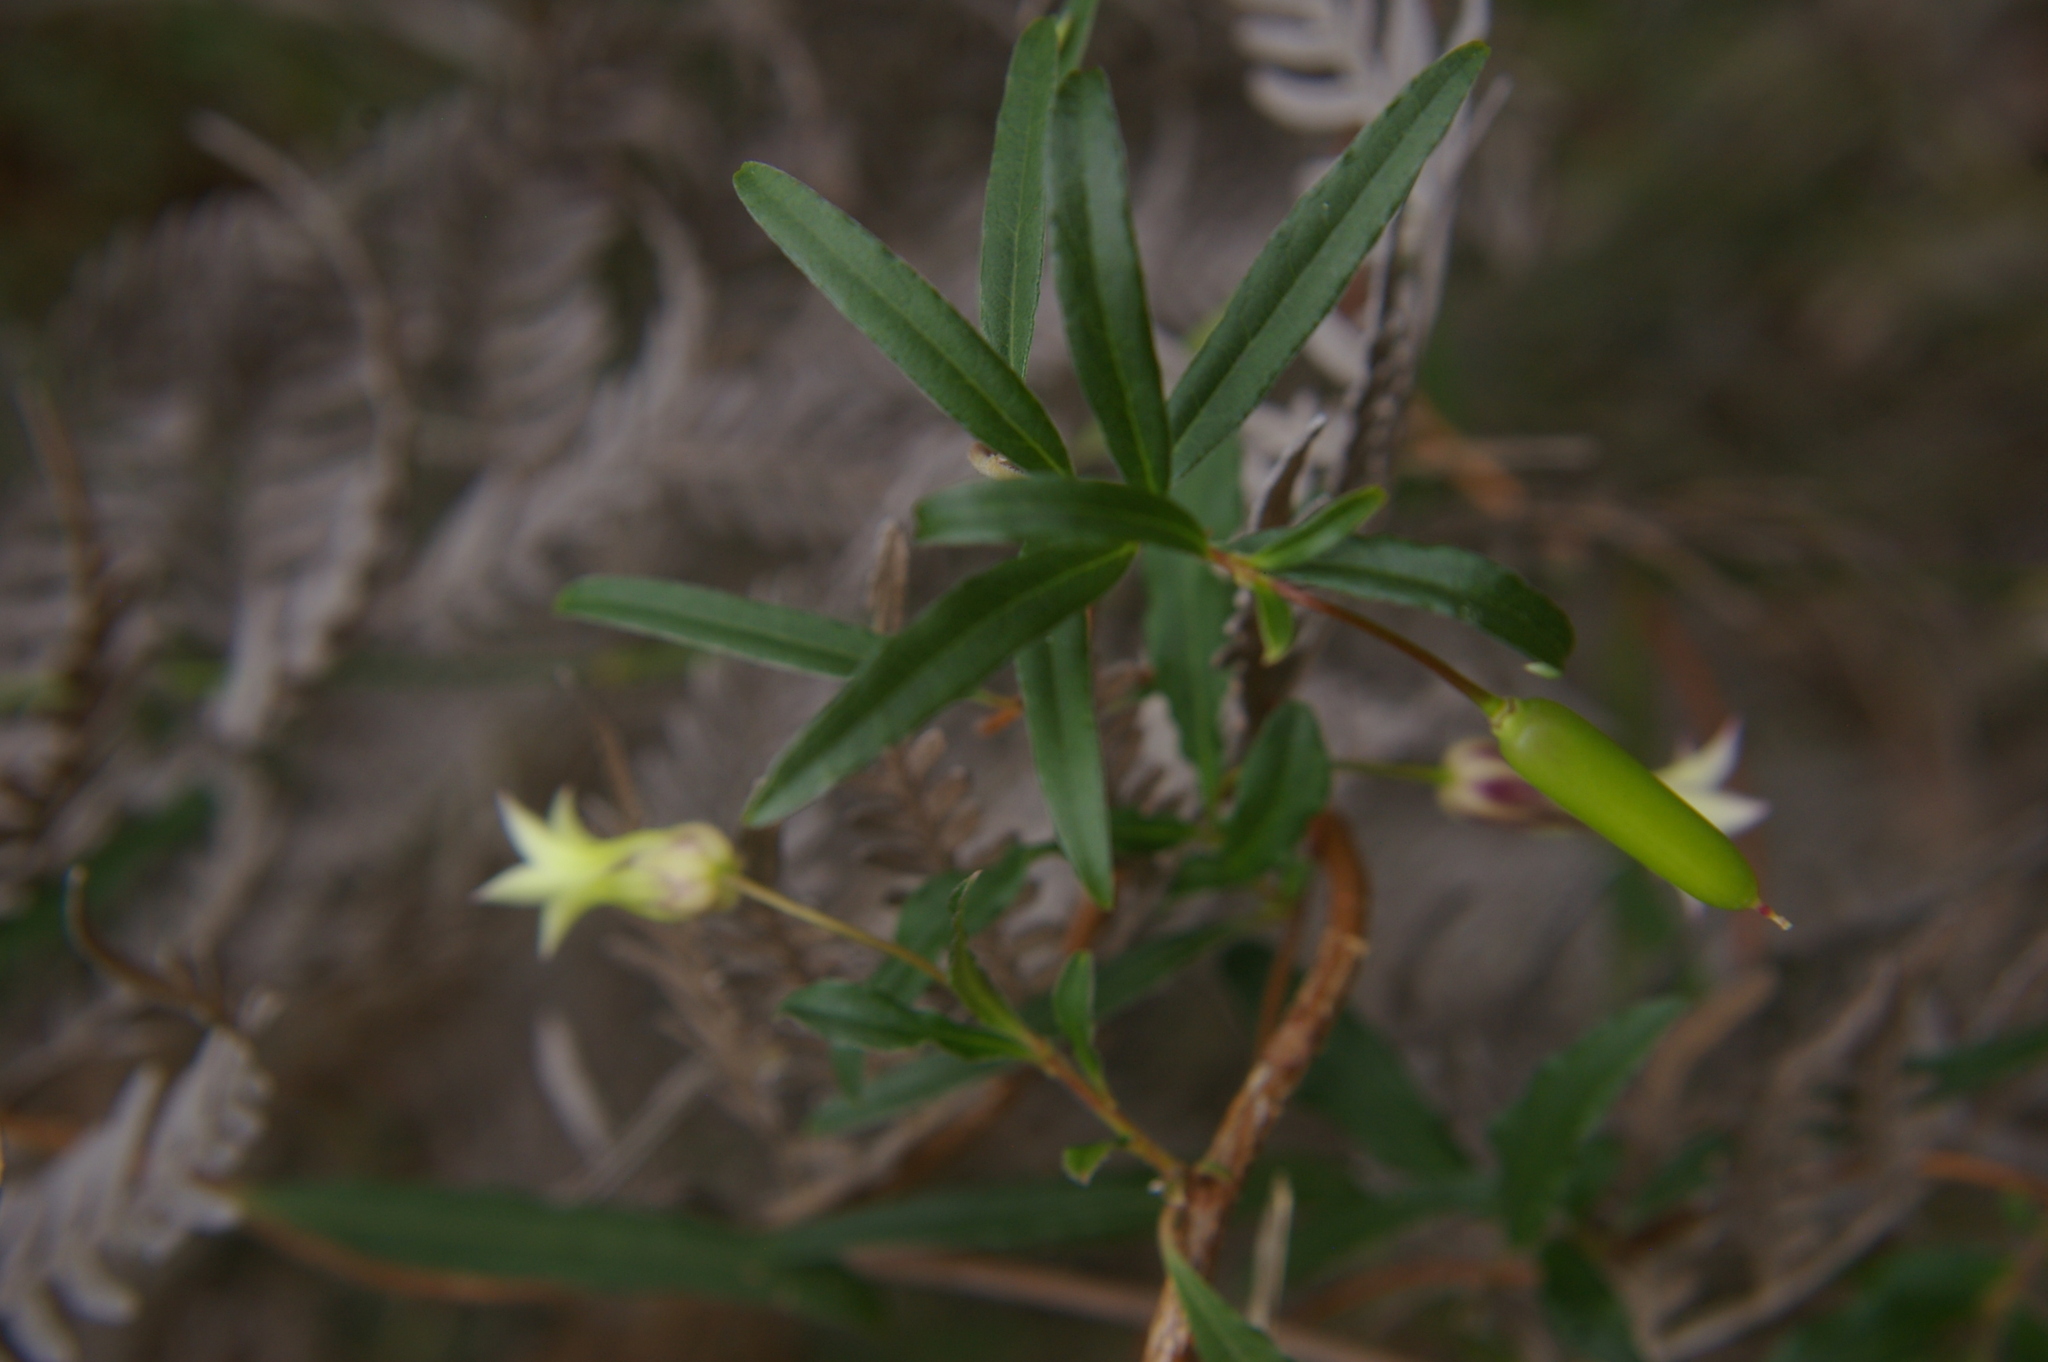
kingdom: Plantae
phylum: Tracheophyta
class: Magnoliopsida
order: Apiales
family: Pittosporaceae
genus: Billardiera
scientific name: Billardiera mutabilis
